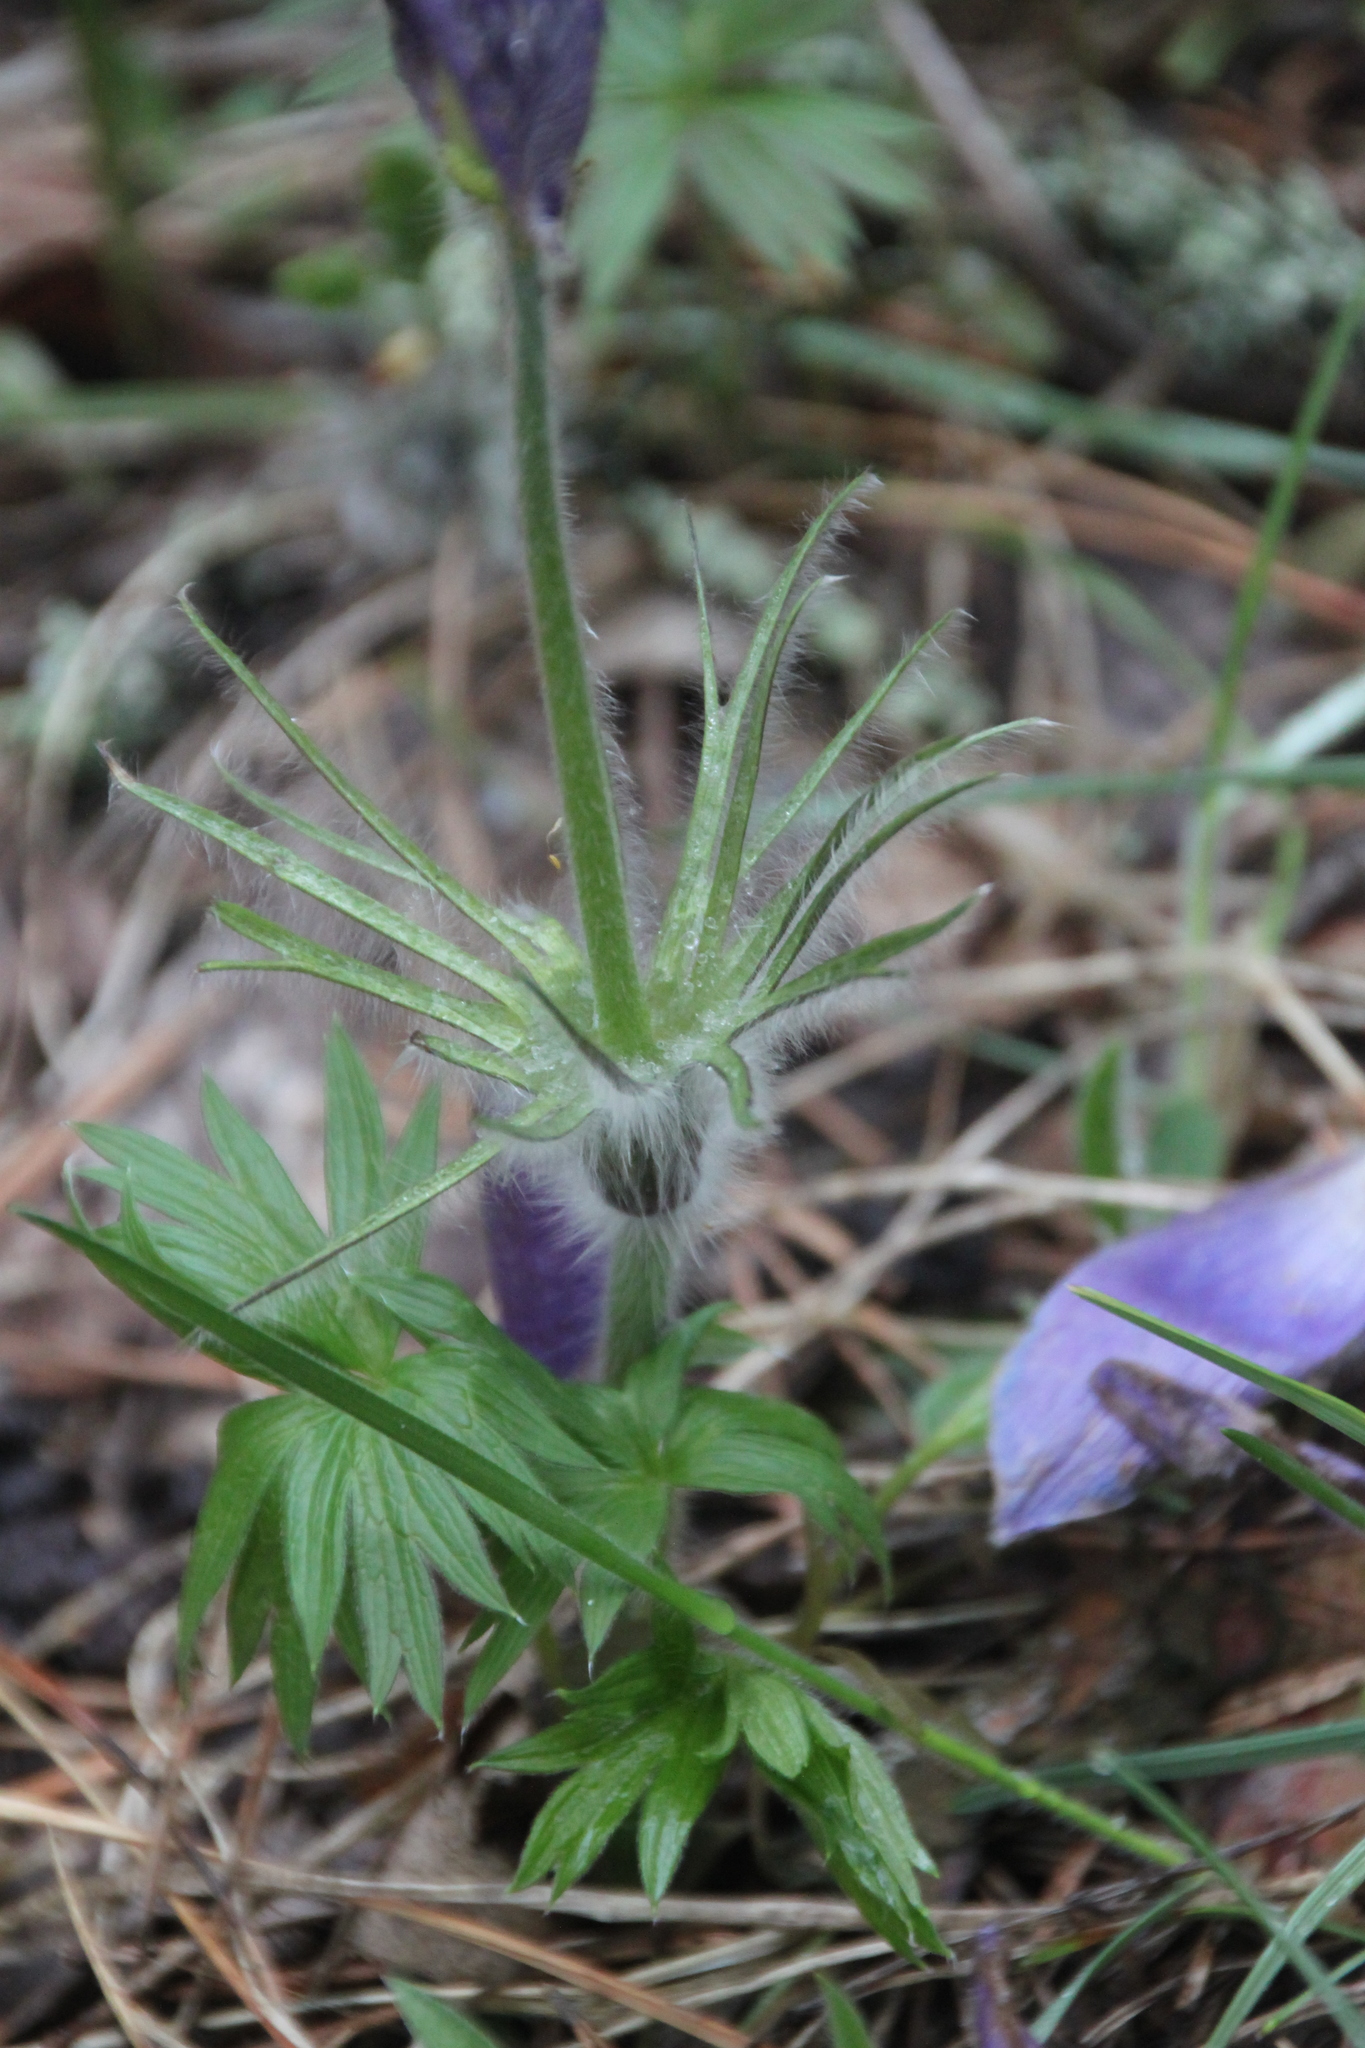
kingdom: Plantae
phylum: Tracheophyta
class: Magnoliopsida
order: Ranunculales
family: Ranunculaceae
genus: Pulsatilla
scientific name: Pulsatilla patens
